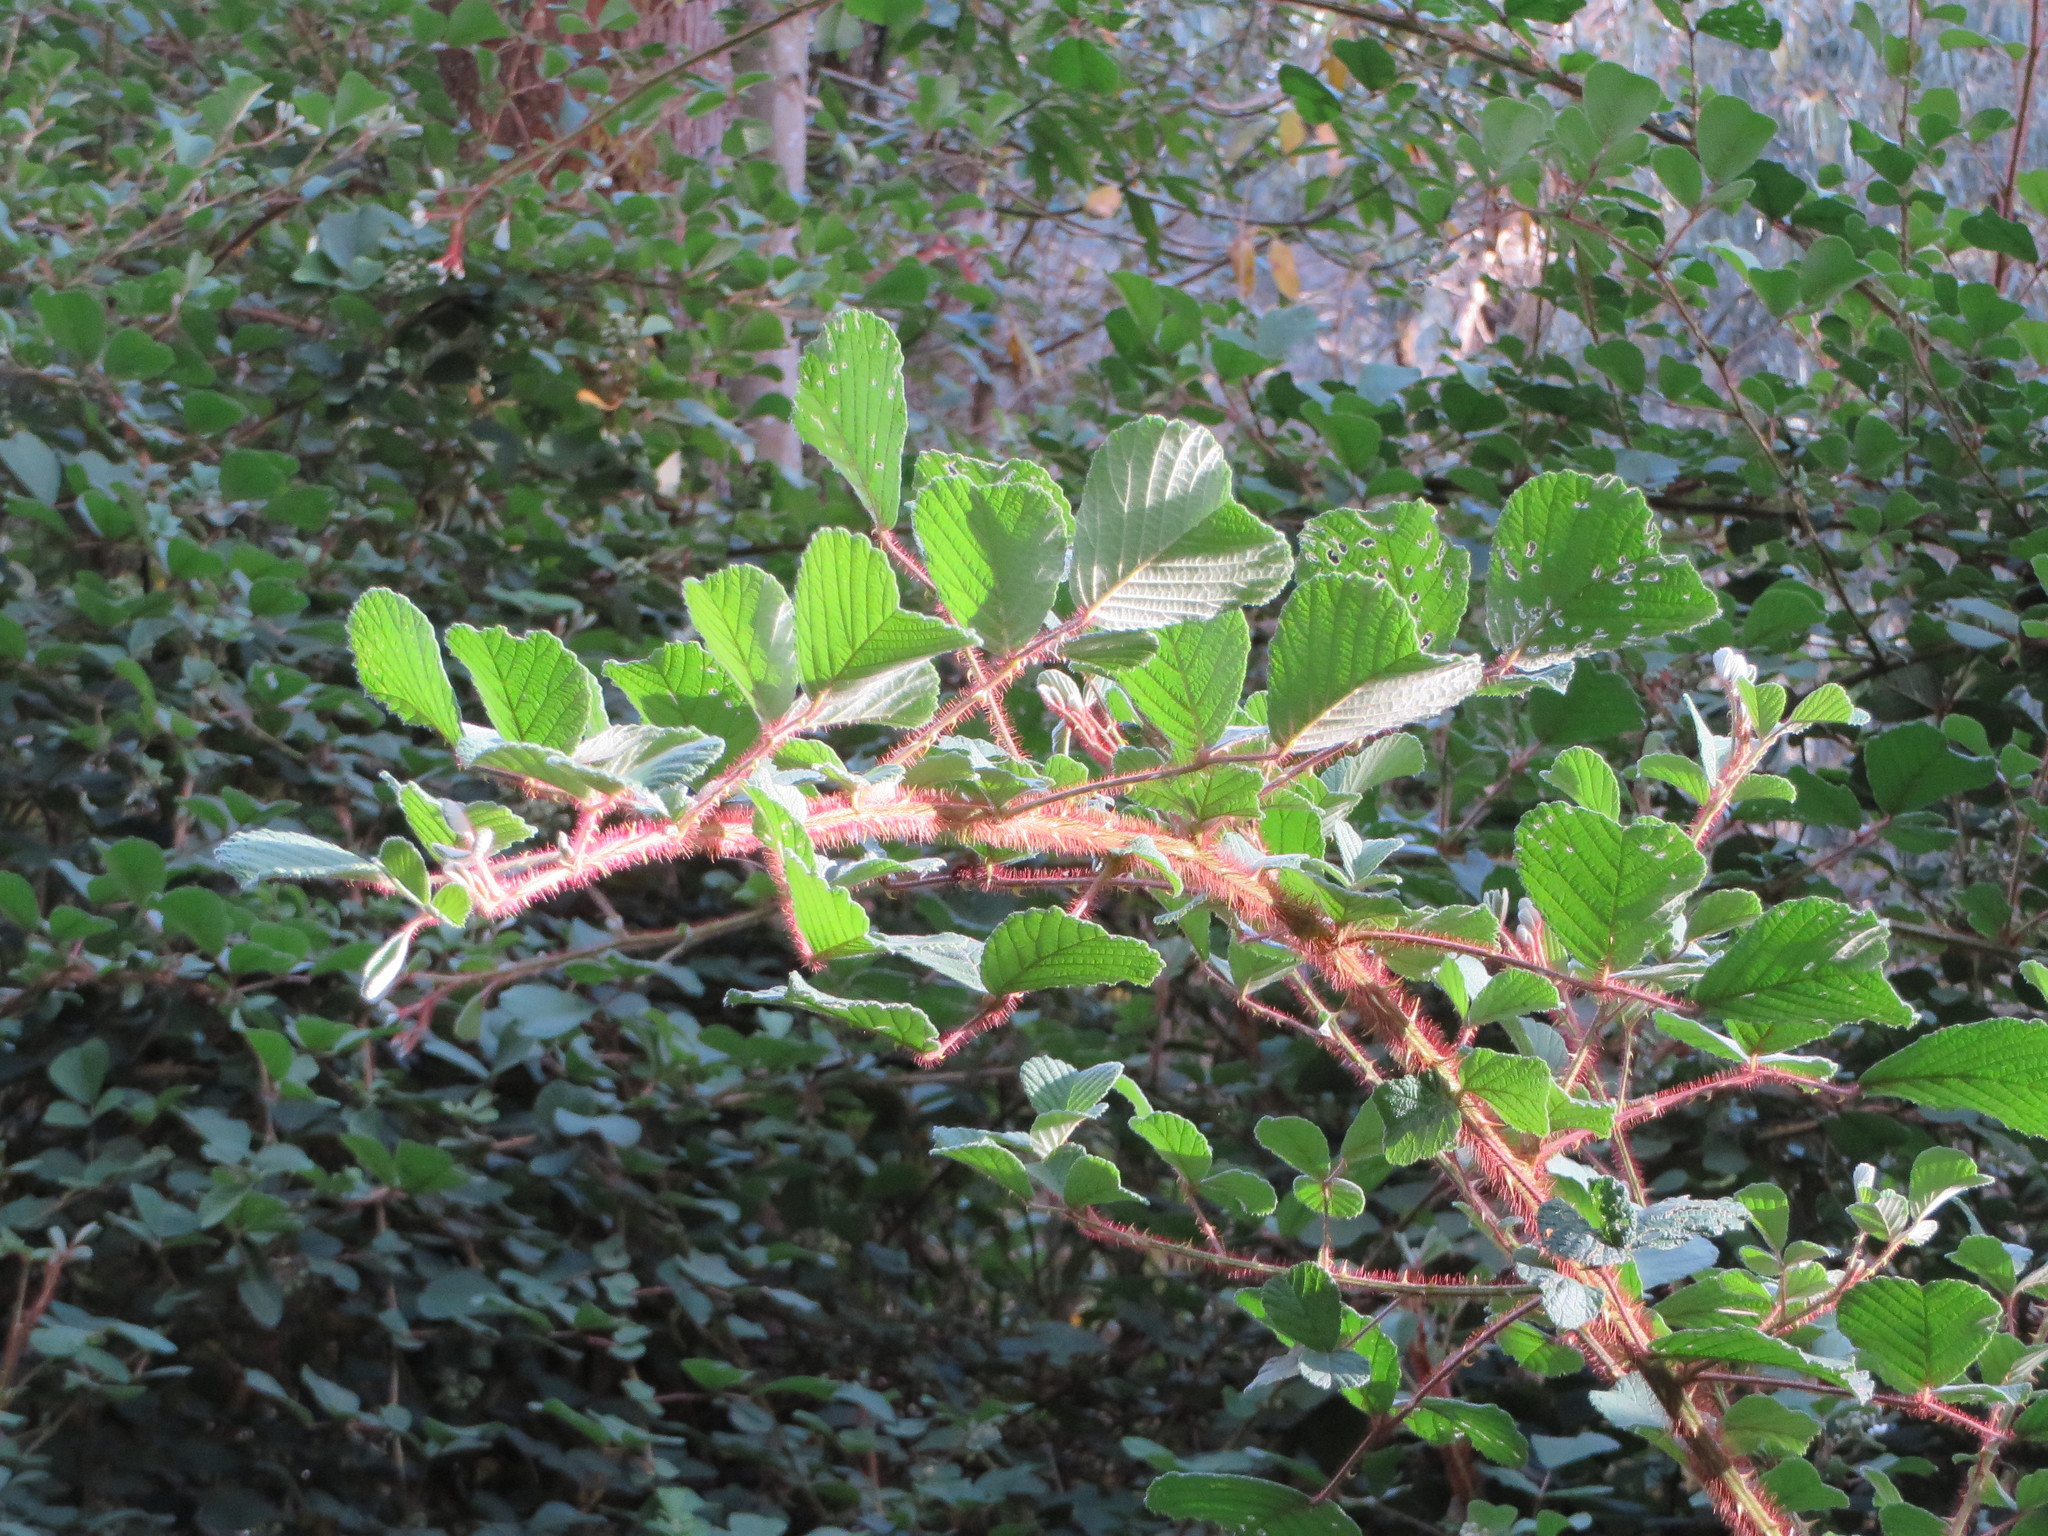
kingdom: Plantae
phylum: Tracheophyta
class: Magnoliopsida
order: Rosales
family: Rosaceae
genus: Rubus
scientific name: Rubus ellipticus
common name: Cheeseberry
